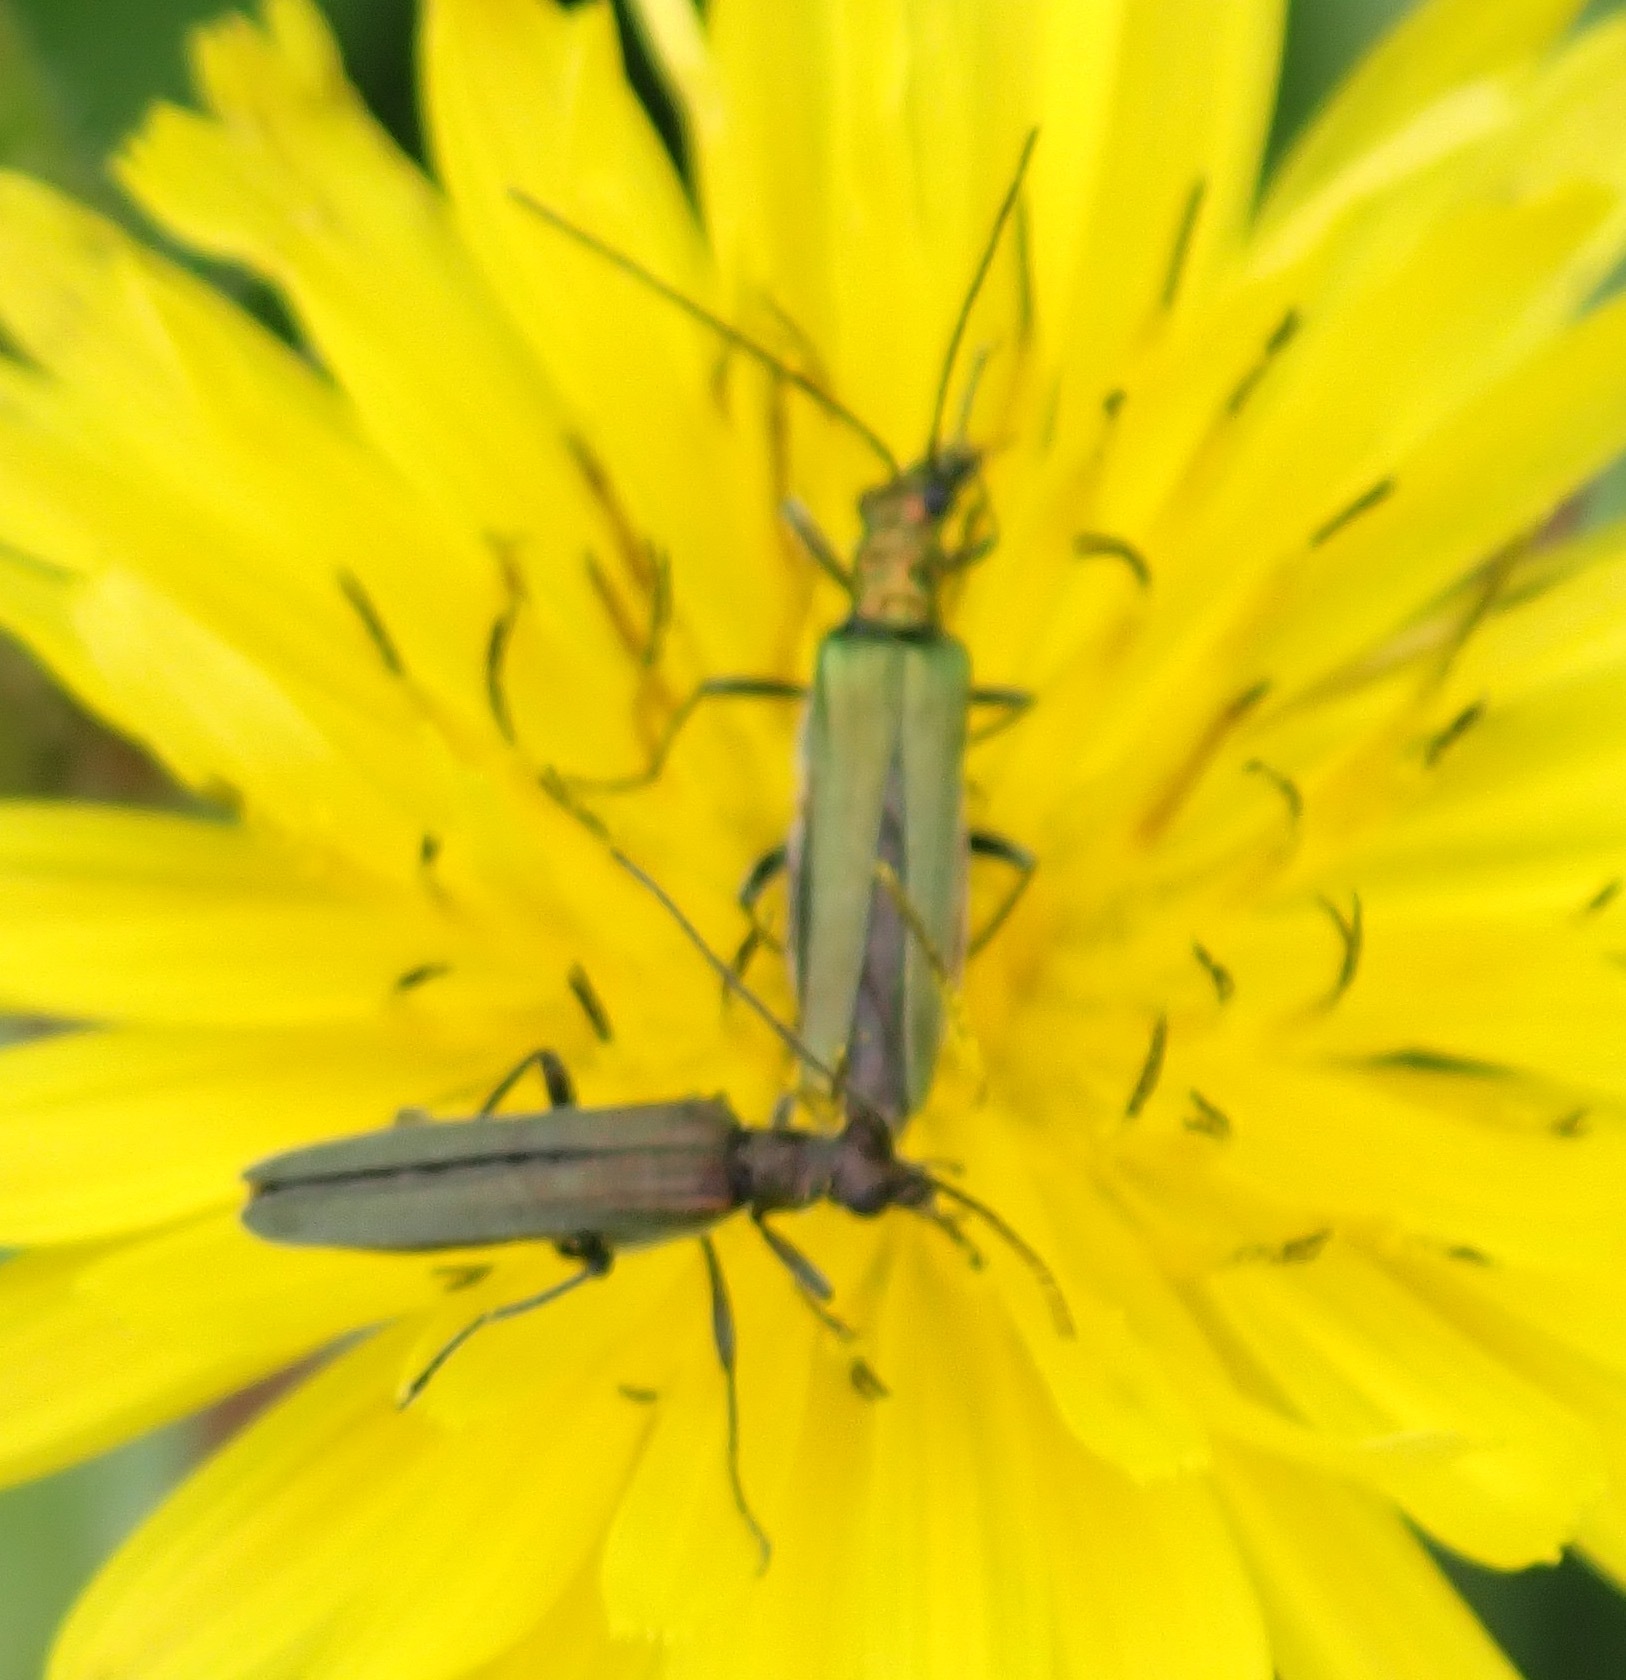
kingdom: Animalia
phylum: Arthropoda
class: Insecta
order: Coleoptera
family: Oedemeridae
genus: Oedemera
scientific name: Oedemera nobilis
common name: Swollen-thighed beetle
